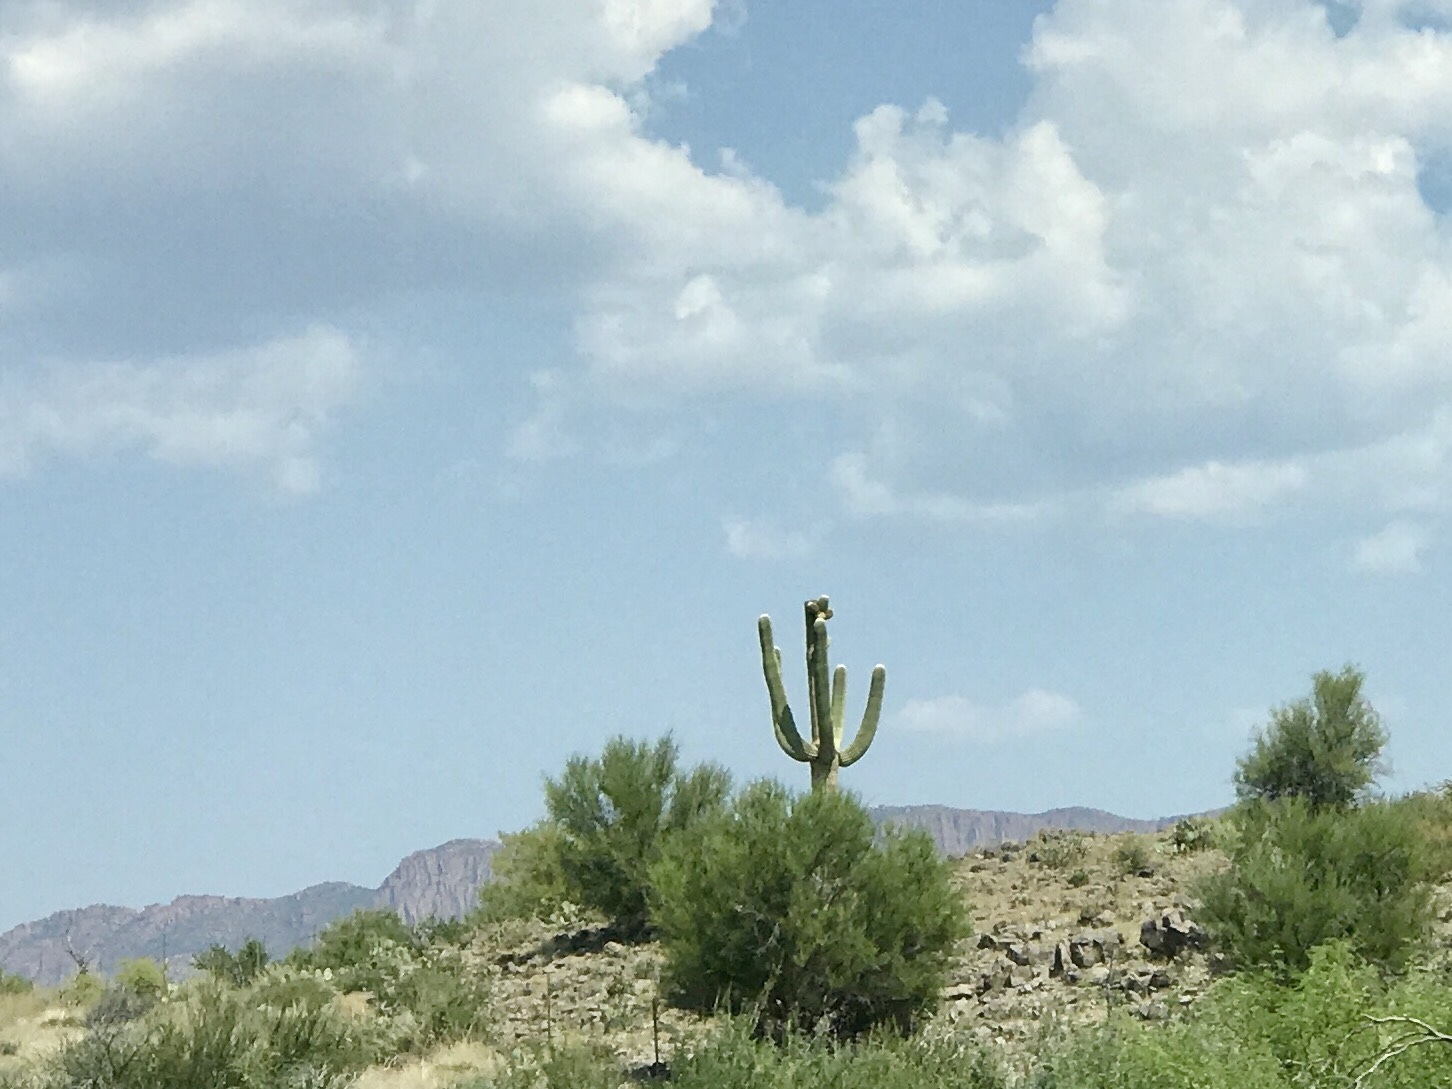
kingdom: Plantae
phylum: Tracheophyta
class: Magnoliopsida
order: Caryophyllales
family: Cactaceae
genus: Carnegiea
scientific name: Carnegiea gigantea
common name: Saguaro
